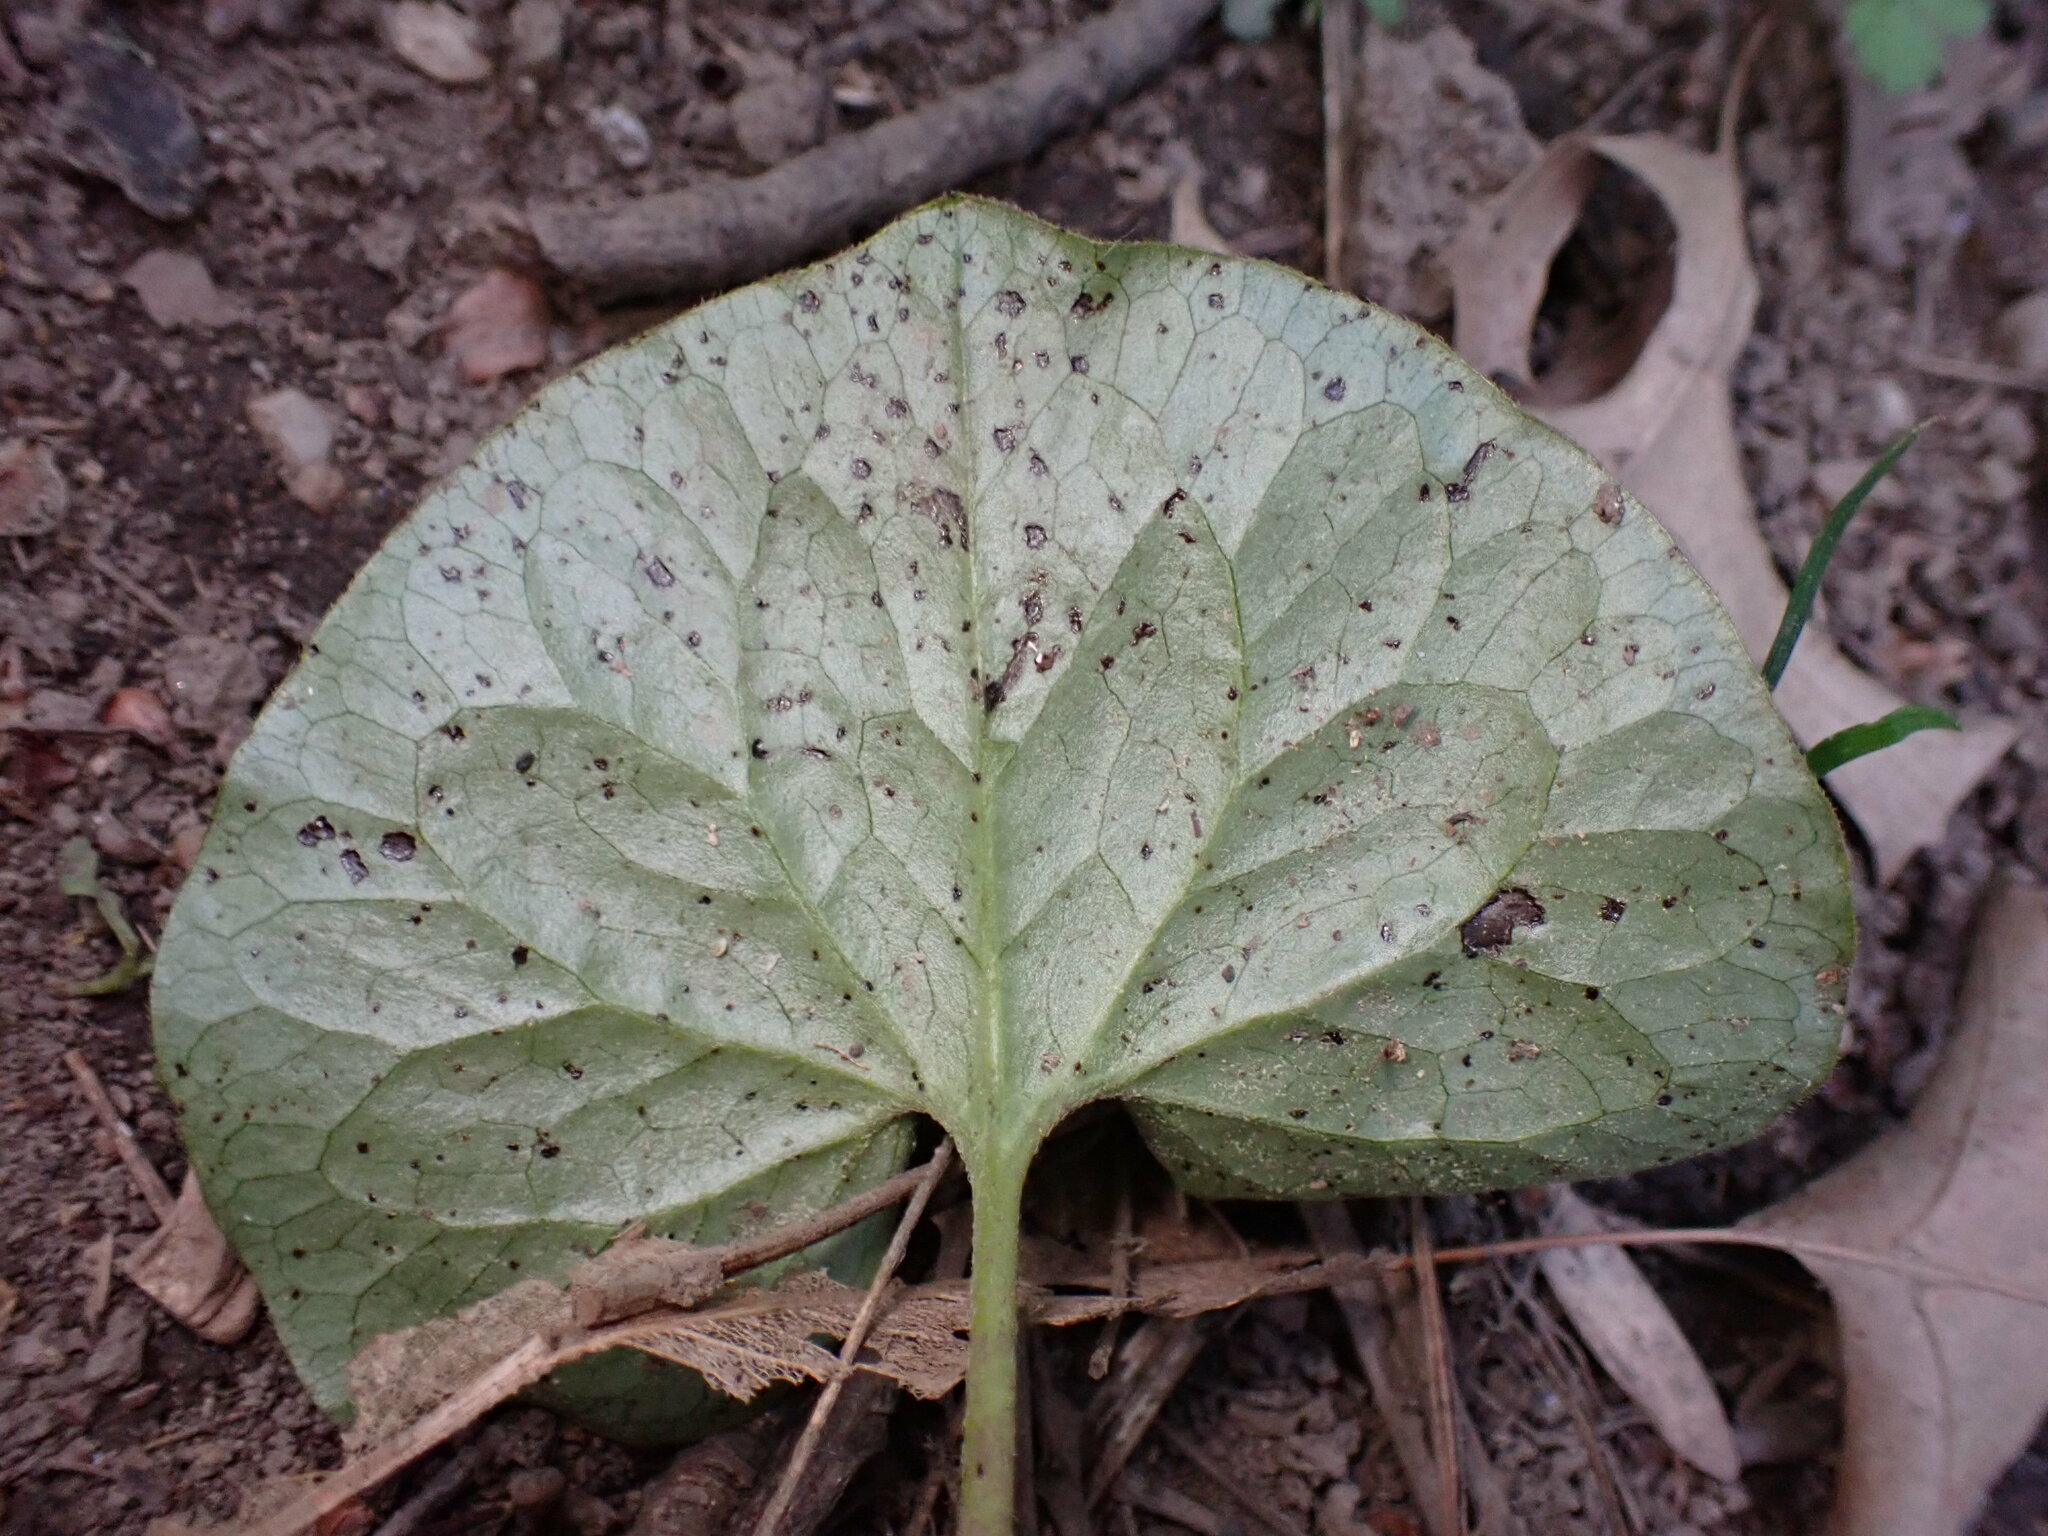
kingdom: Plantae
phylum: Tracheophyta
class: Magnoliopsida
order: Piperales
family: Aristolochiaceae
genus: Asarum
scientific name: Asarum canadense
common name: Wild ginger
